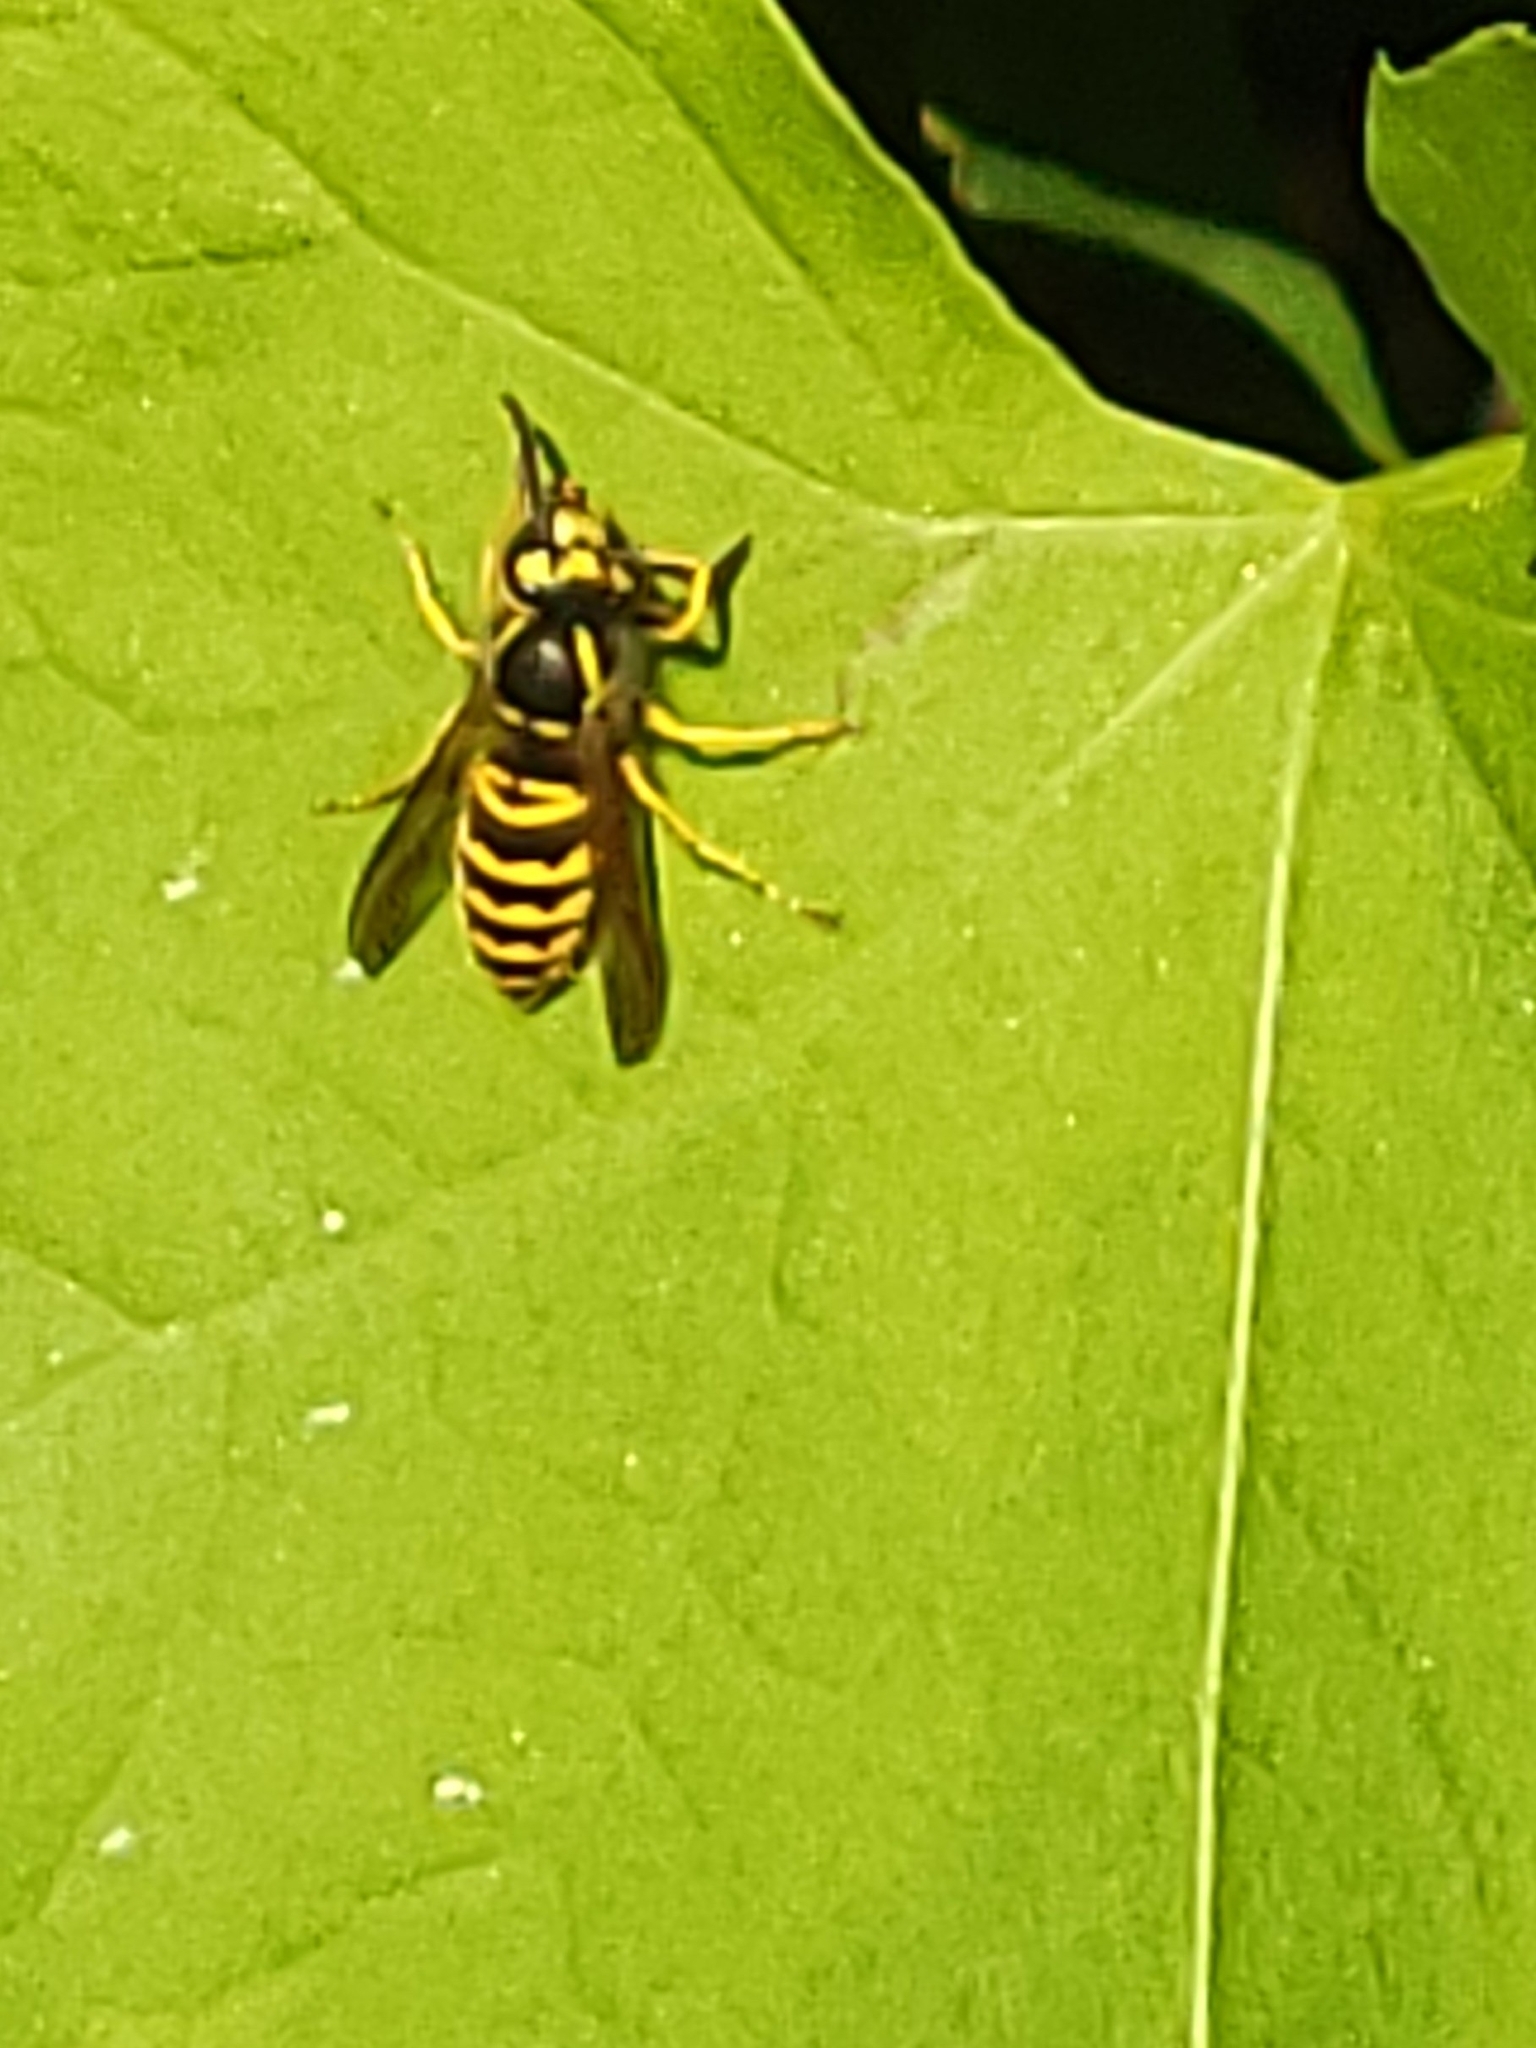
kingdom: Animalia
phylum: Arthropoda
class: Insecta
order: Hymenoptera
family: Vespidae
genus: Vespula
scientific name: Vespula maculifrons
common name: Eastern yellowjacket
